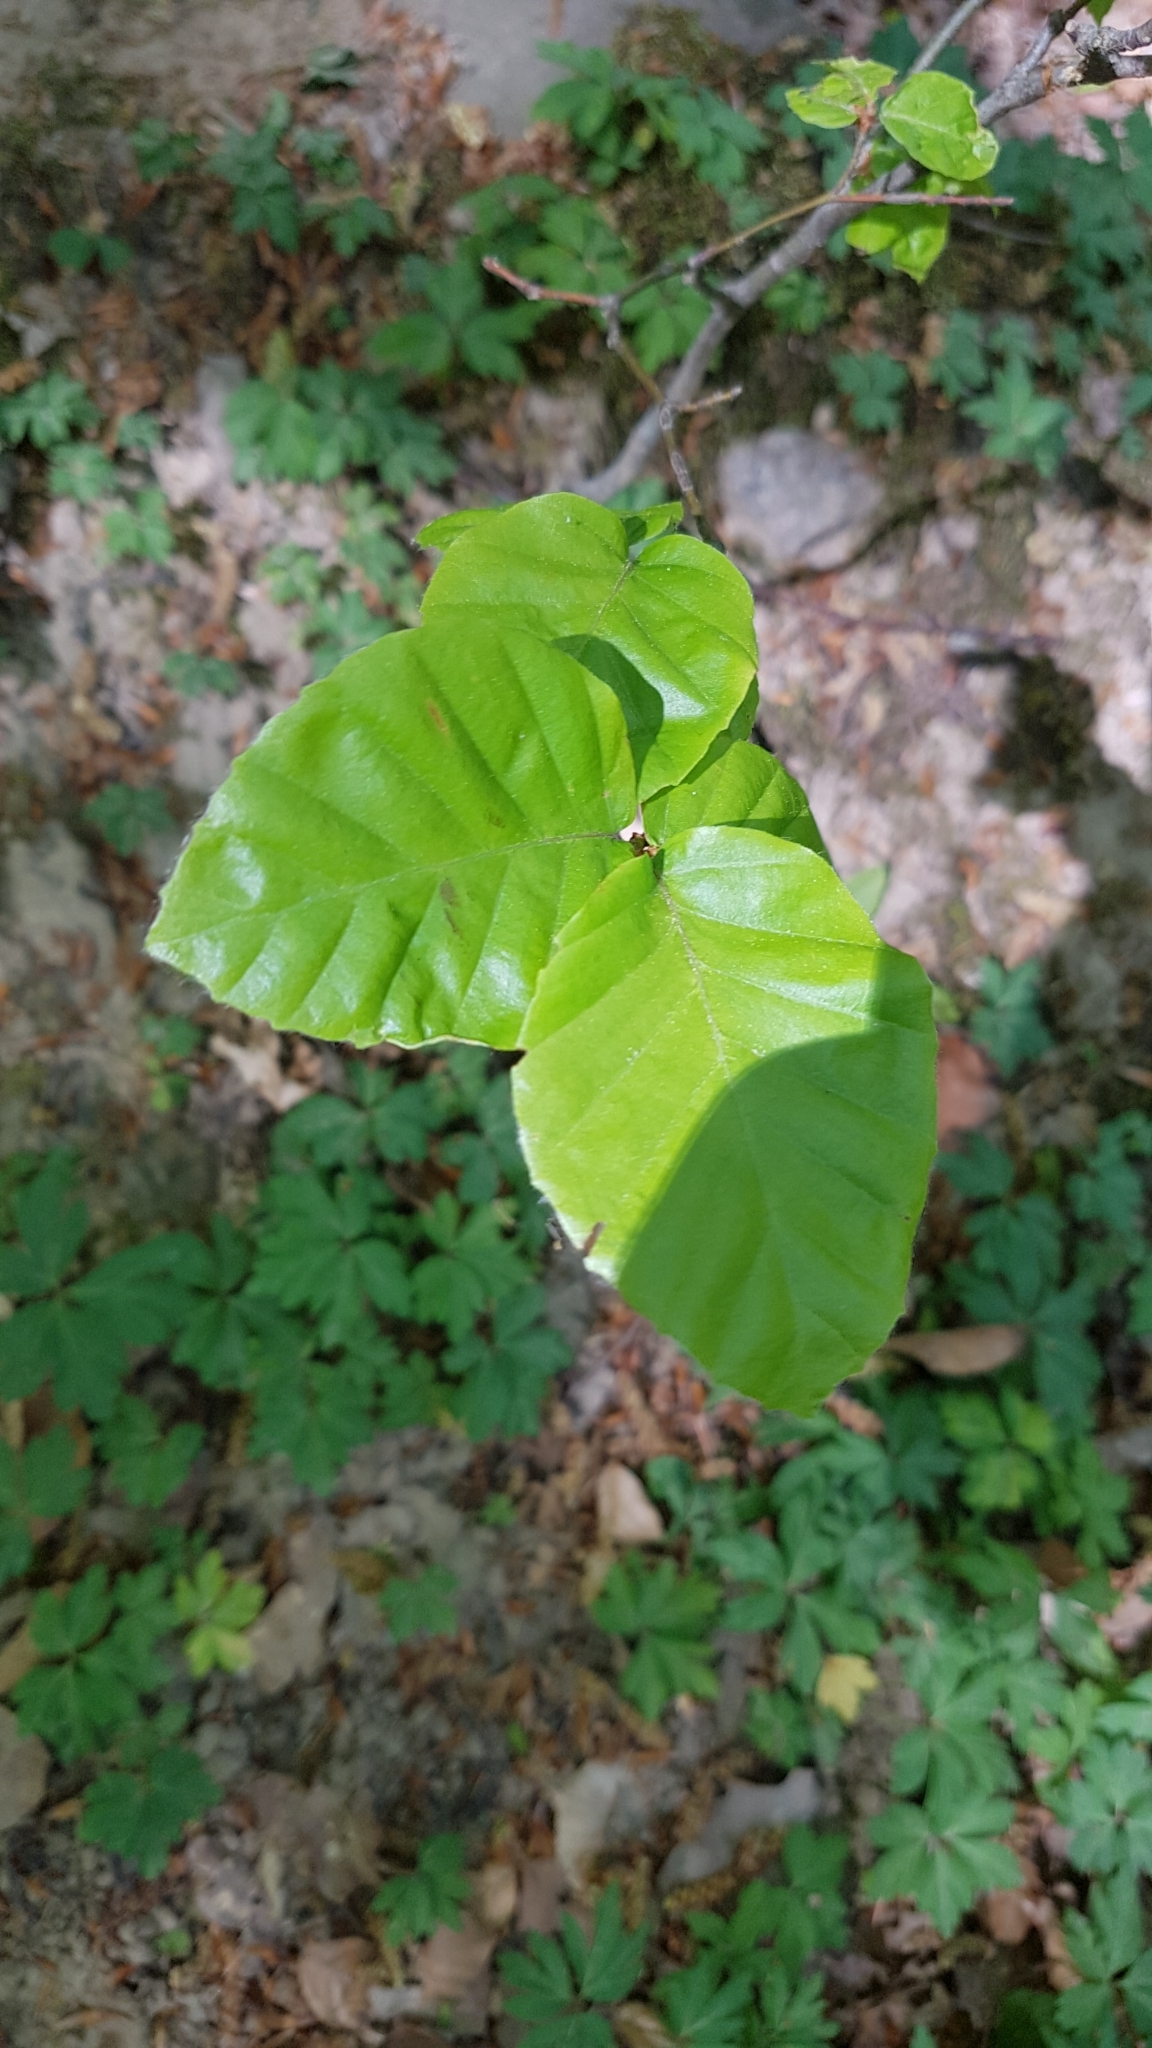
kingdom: Plantae
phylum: Tracheophyta
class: Magnoliopsida
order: Fagales
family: Fagaceae
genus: Fagus
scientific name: Fagus sylvatica
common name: Beech
